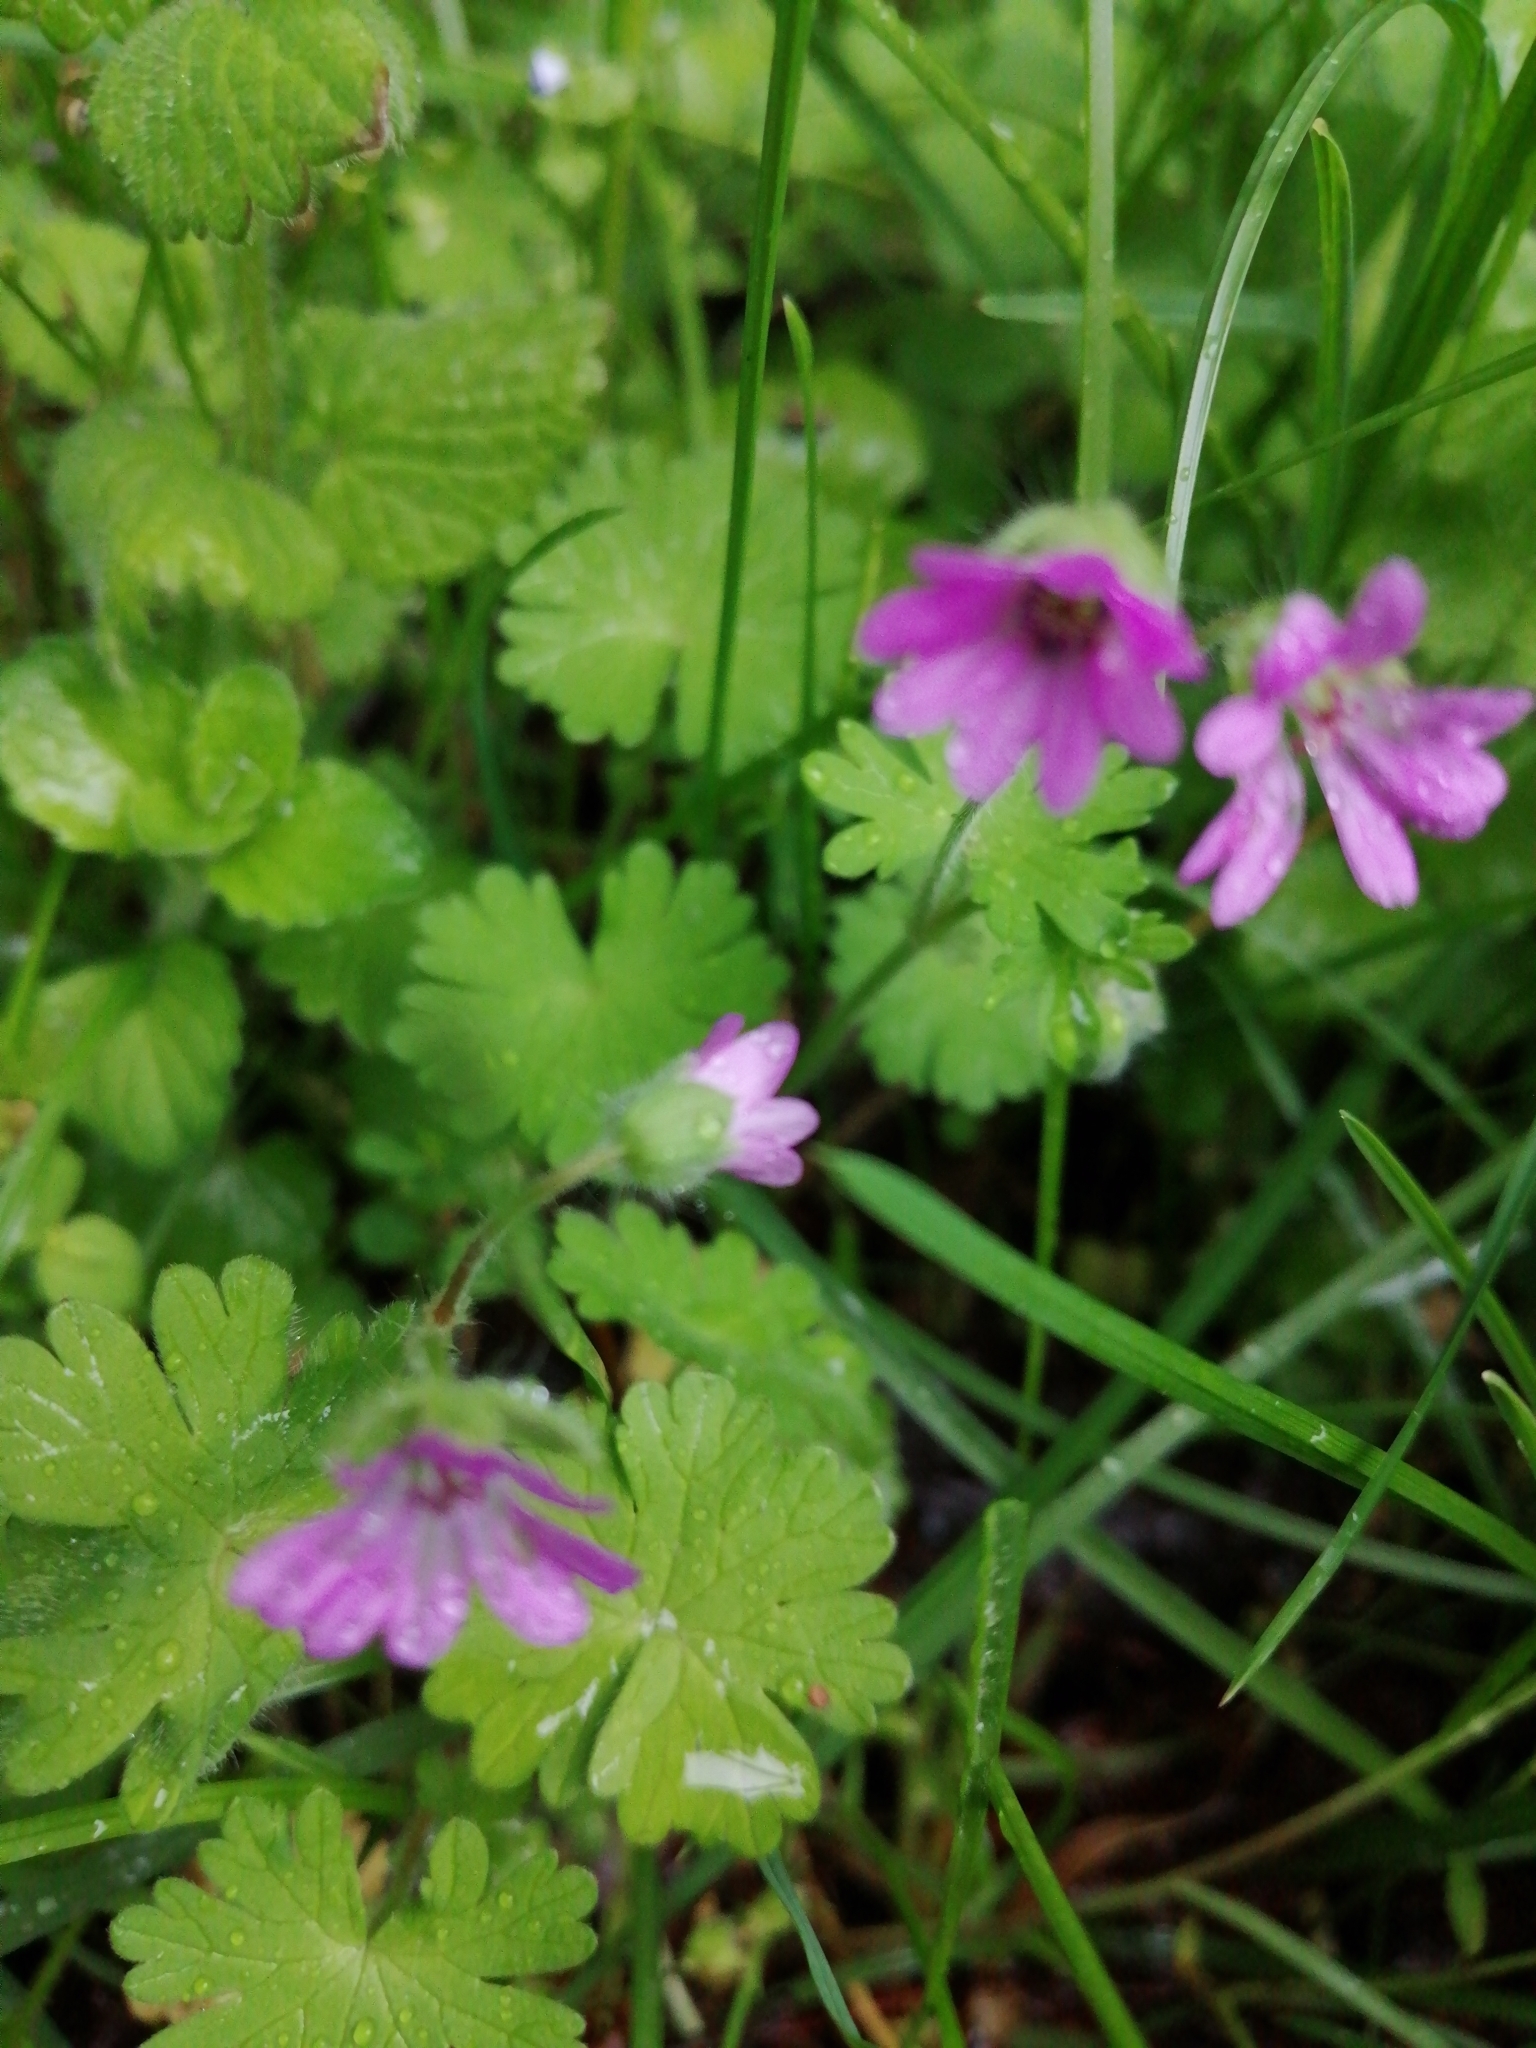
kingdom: Plantae
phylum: Tracheophyta
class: Magnoliopsida
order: Geraniales
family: Geraniaceae
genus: Geranium
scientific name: Geranium molle
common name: Dove's-foot crane's-bill
